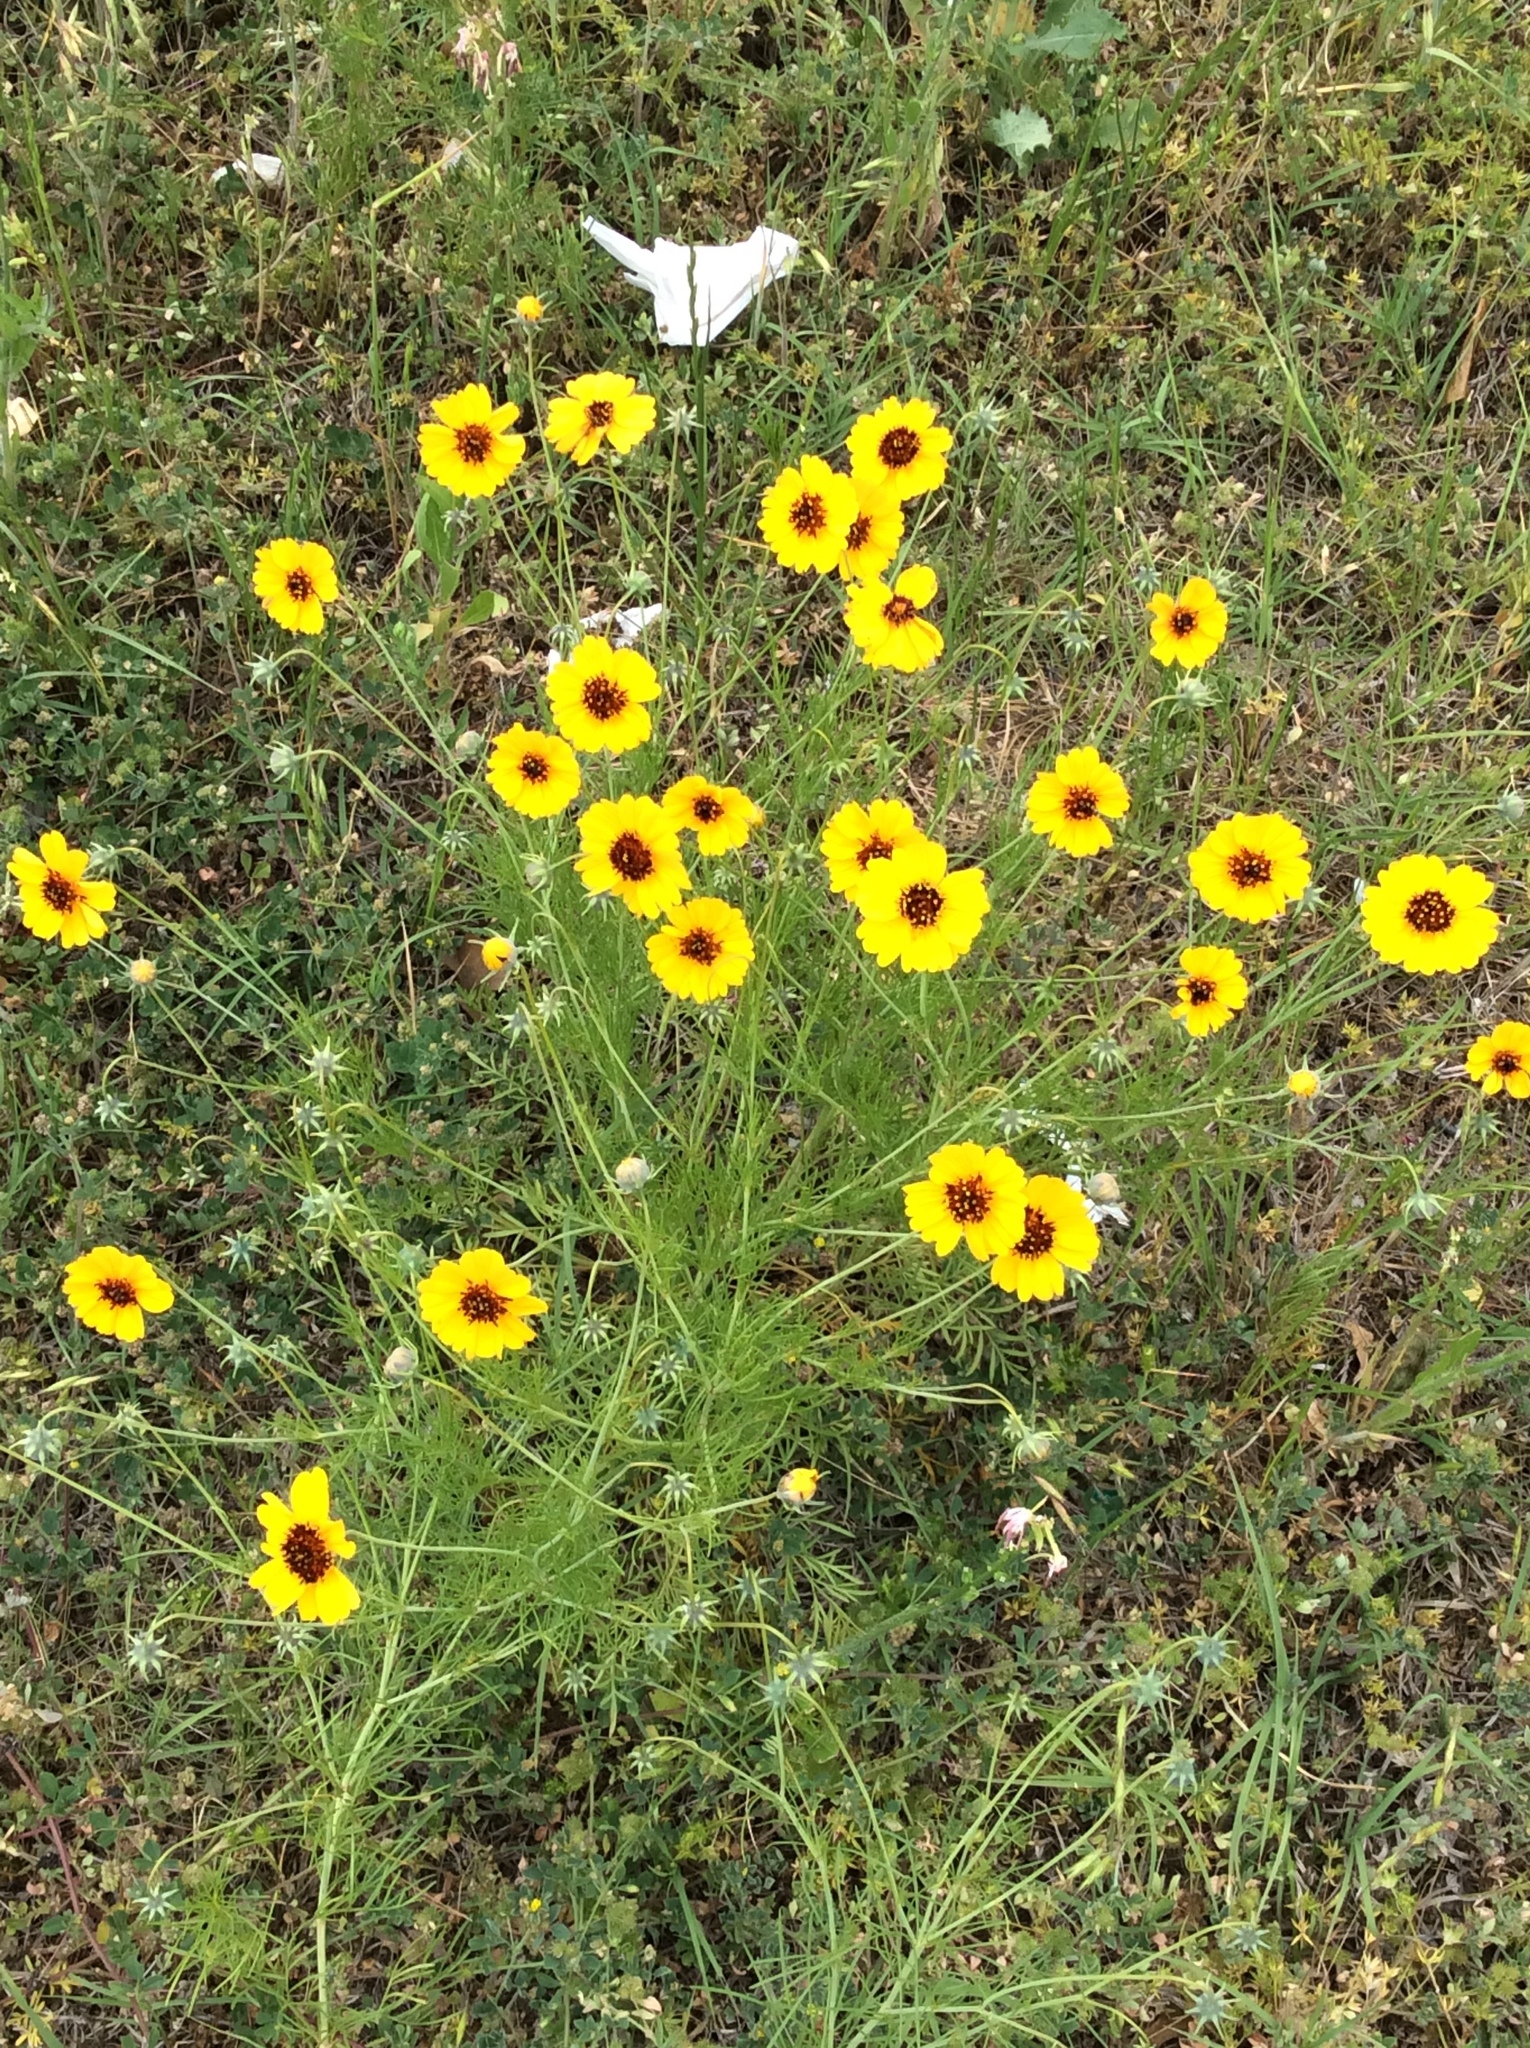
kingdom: Plantae
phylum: Tracheophyta
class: Magnoliopsida
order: Asterales
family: Asteraceae
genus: Thelesperma
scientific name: Thelesperma filifolium
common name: Stiff greenthread
